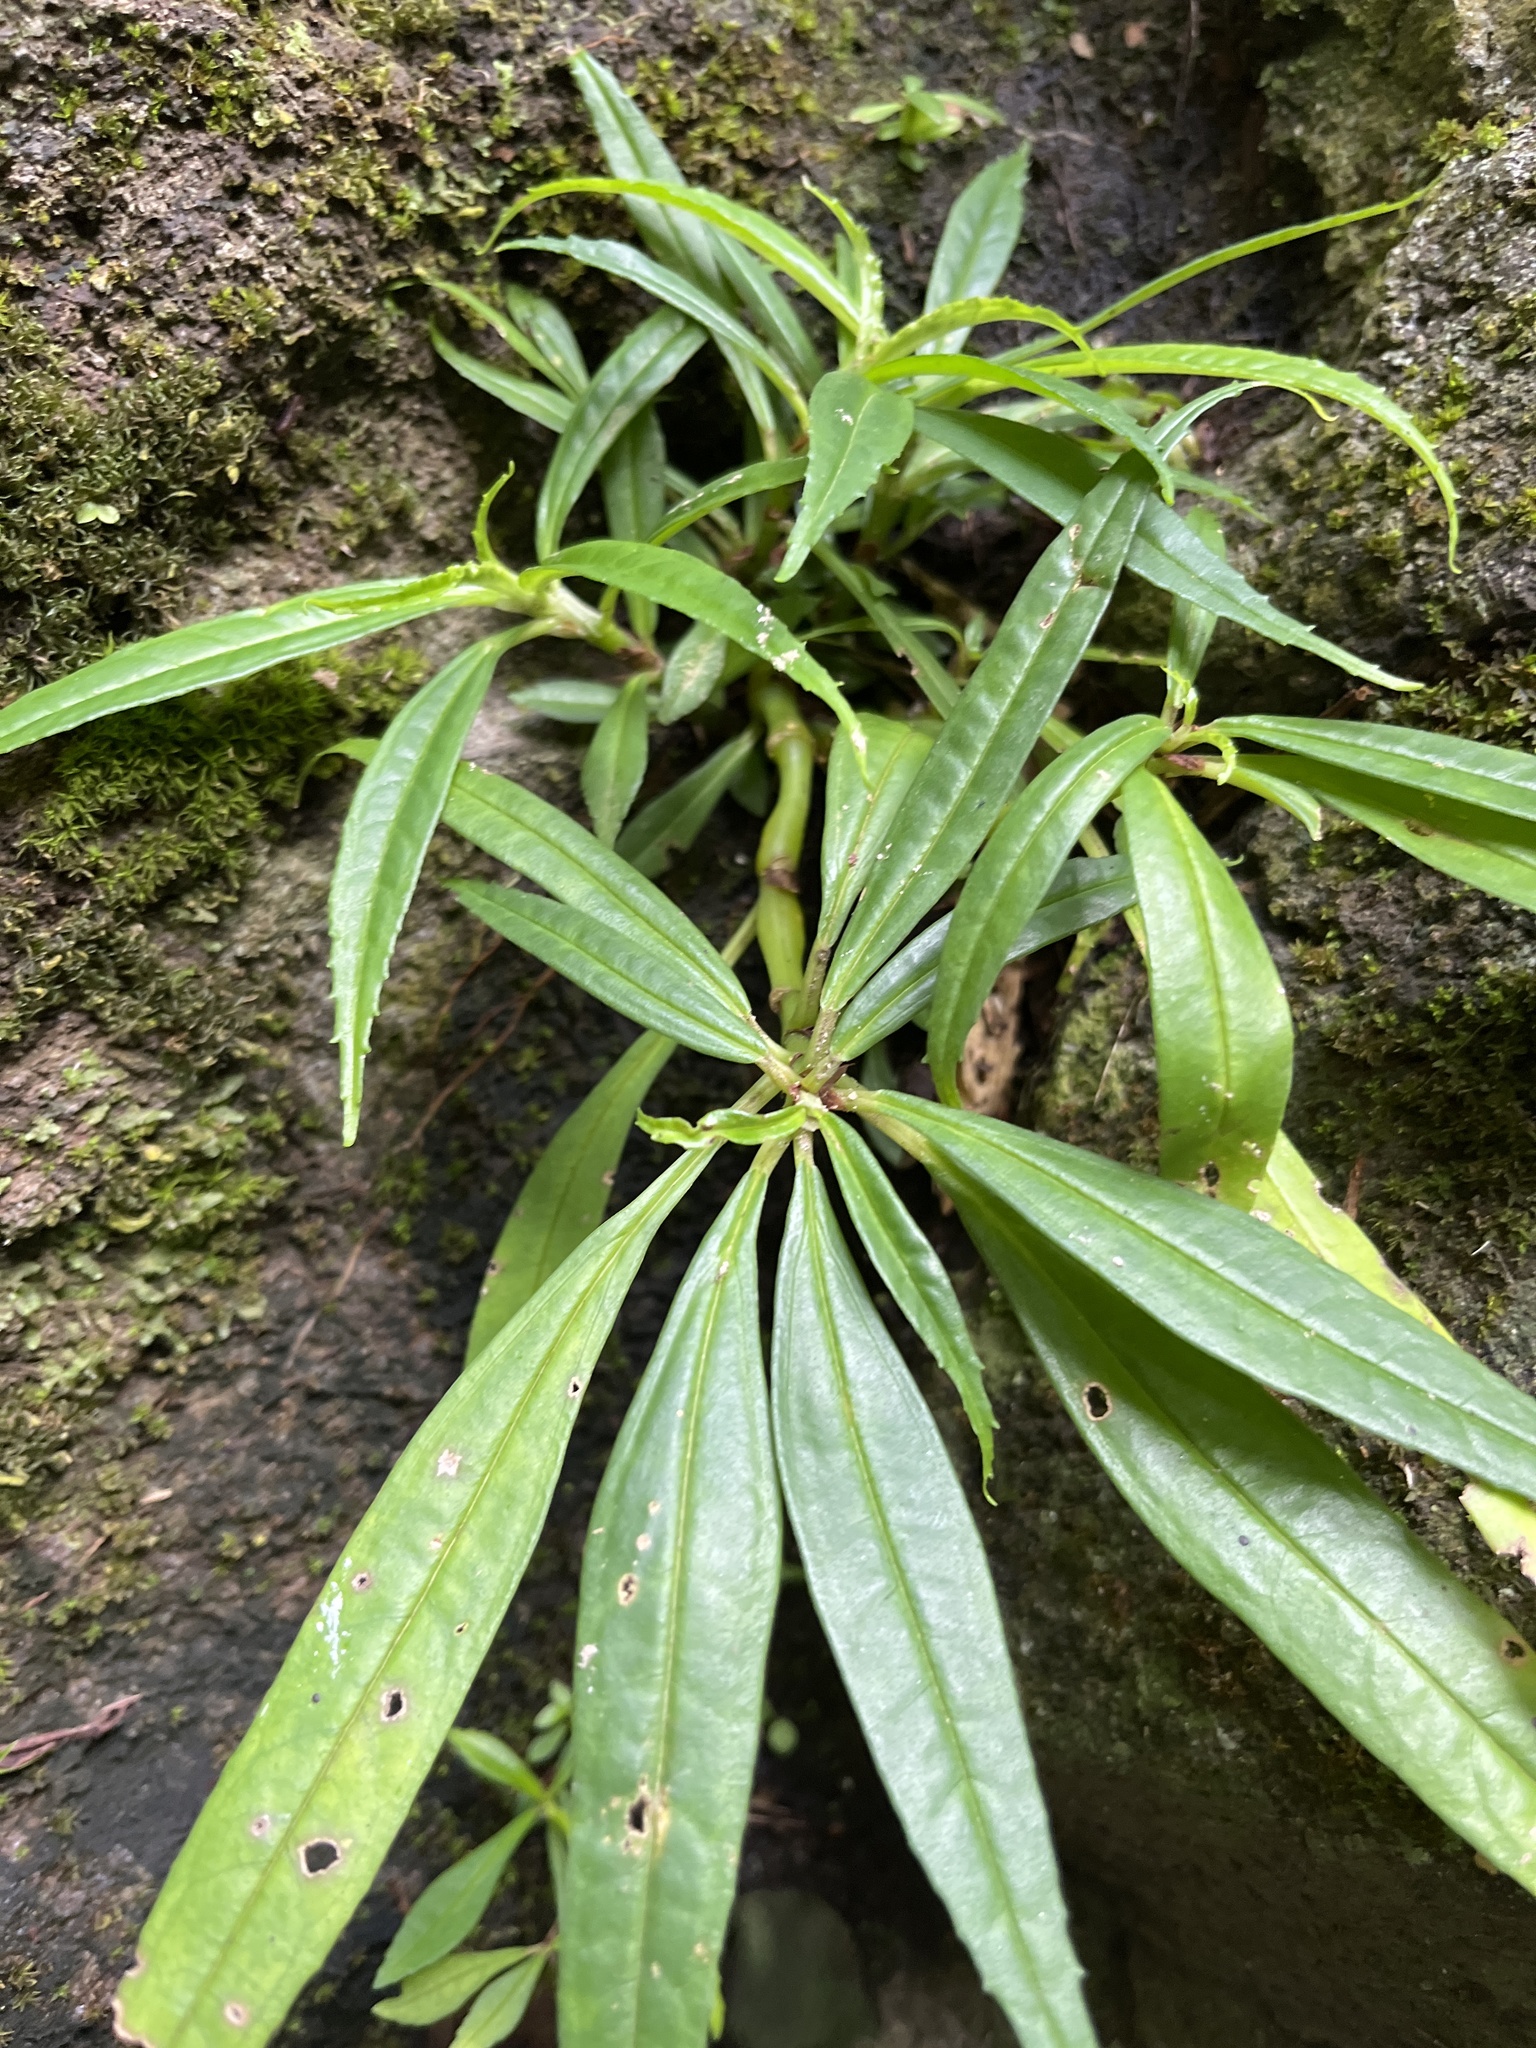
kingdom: Plantae
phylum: Tracheophyta
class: Magnoliopsida
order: Rosales
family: Urticaceae
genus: Pilea
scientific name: Pilea semidentata
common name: Cliffside clearweed
